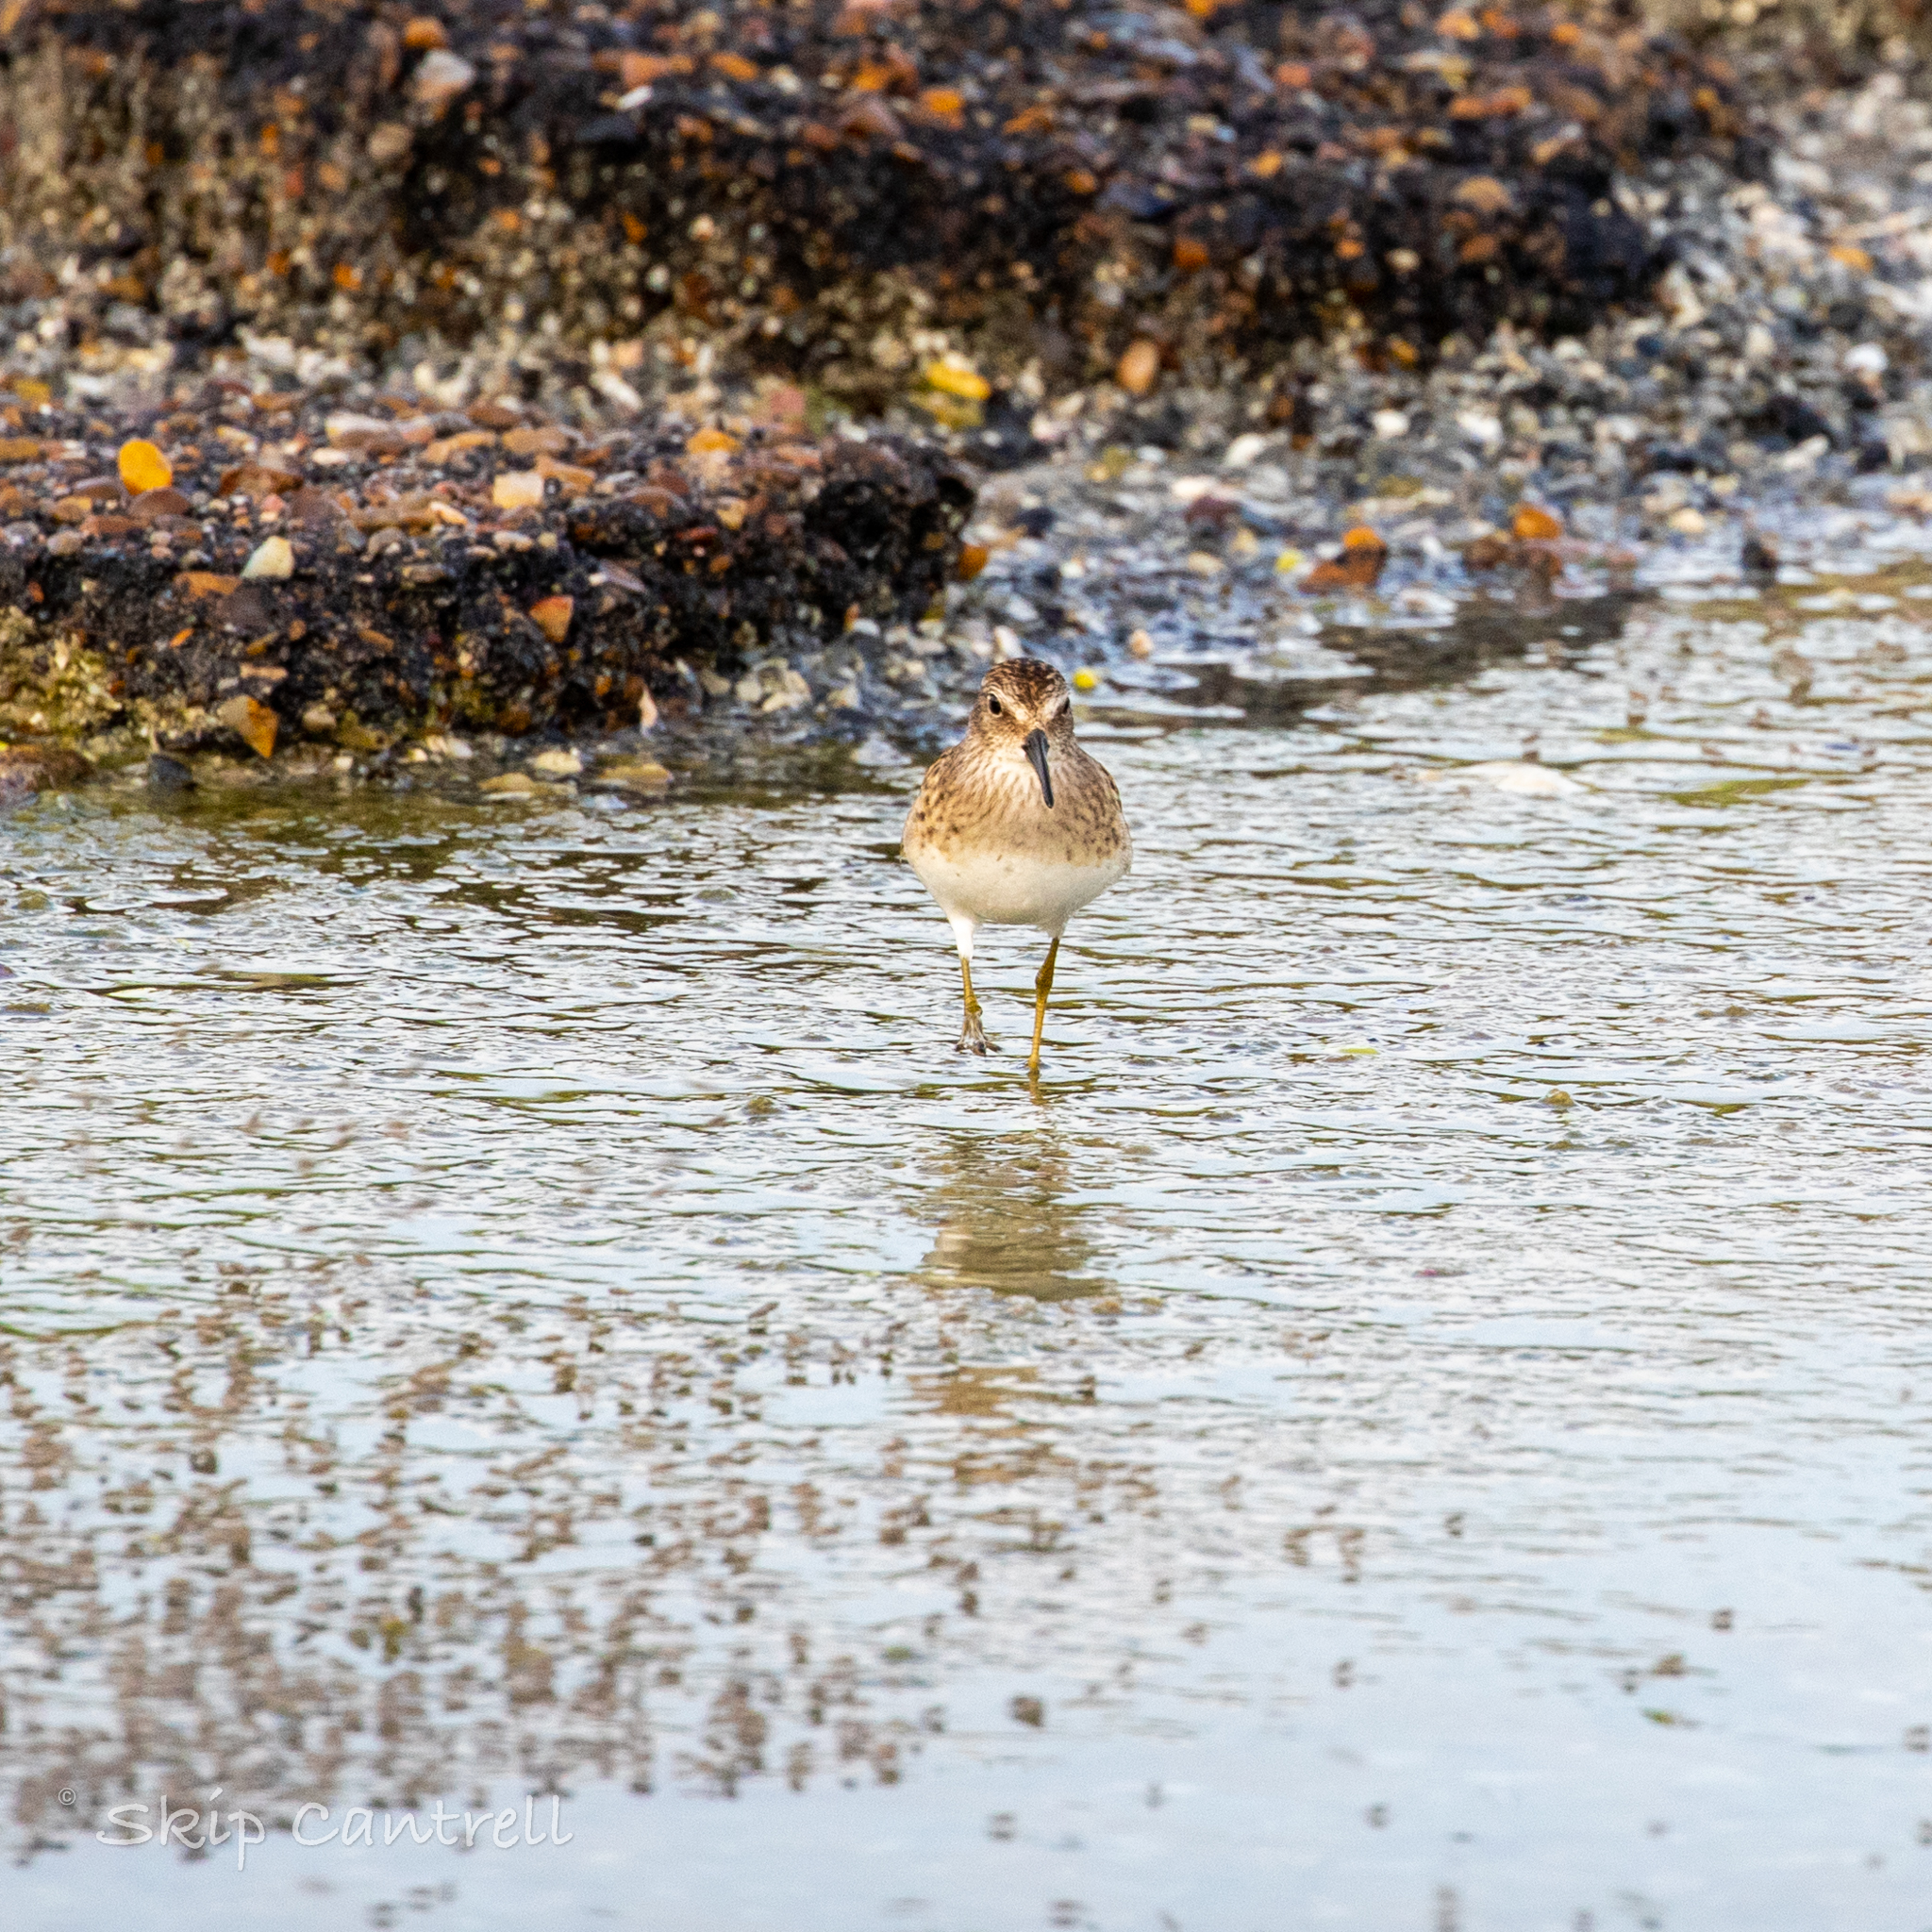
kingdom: Animalia
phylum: Chordata
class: Aves
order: Charadriiformes
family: Scolopacidae
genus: Calidris
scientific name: Calidris minutilla
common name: Least sandpiper
